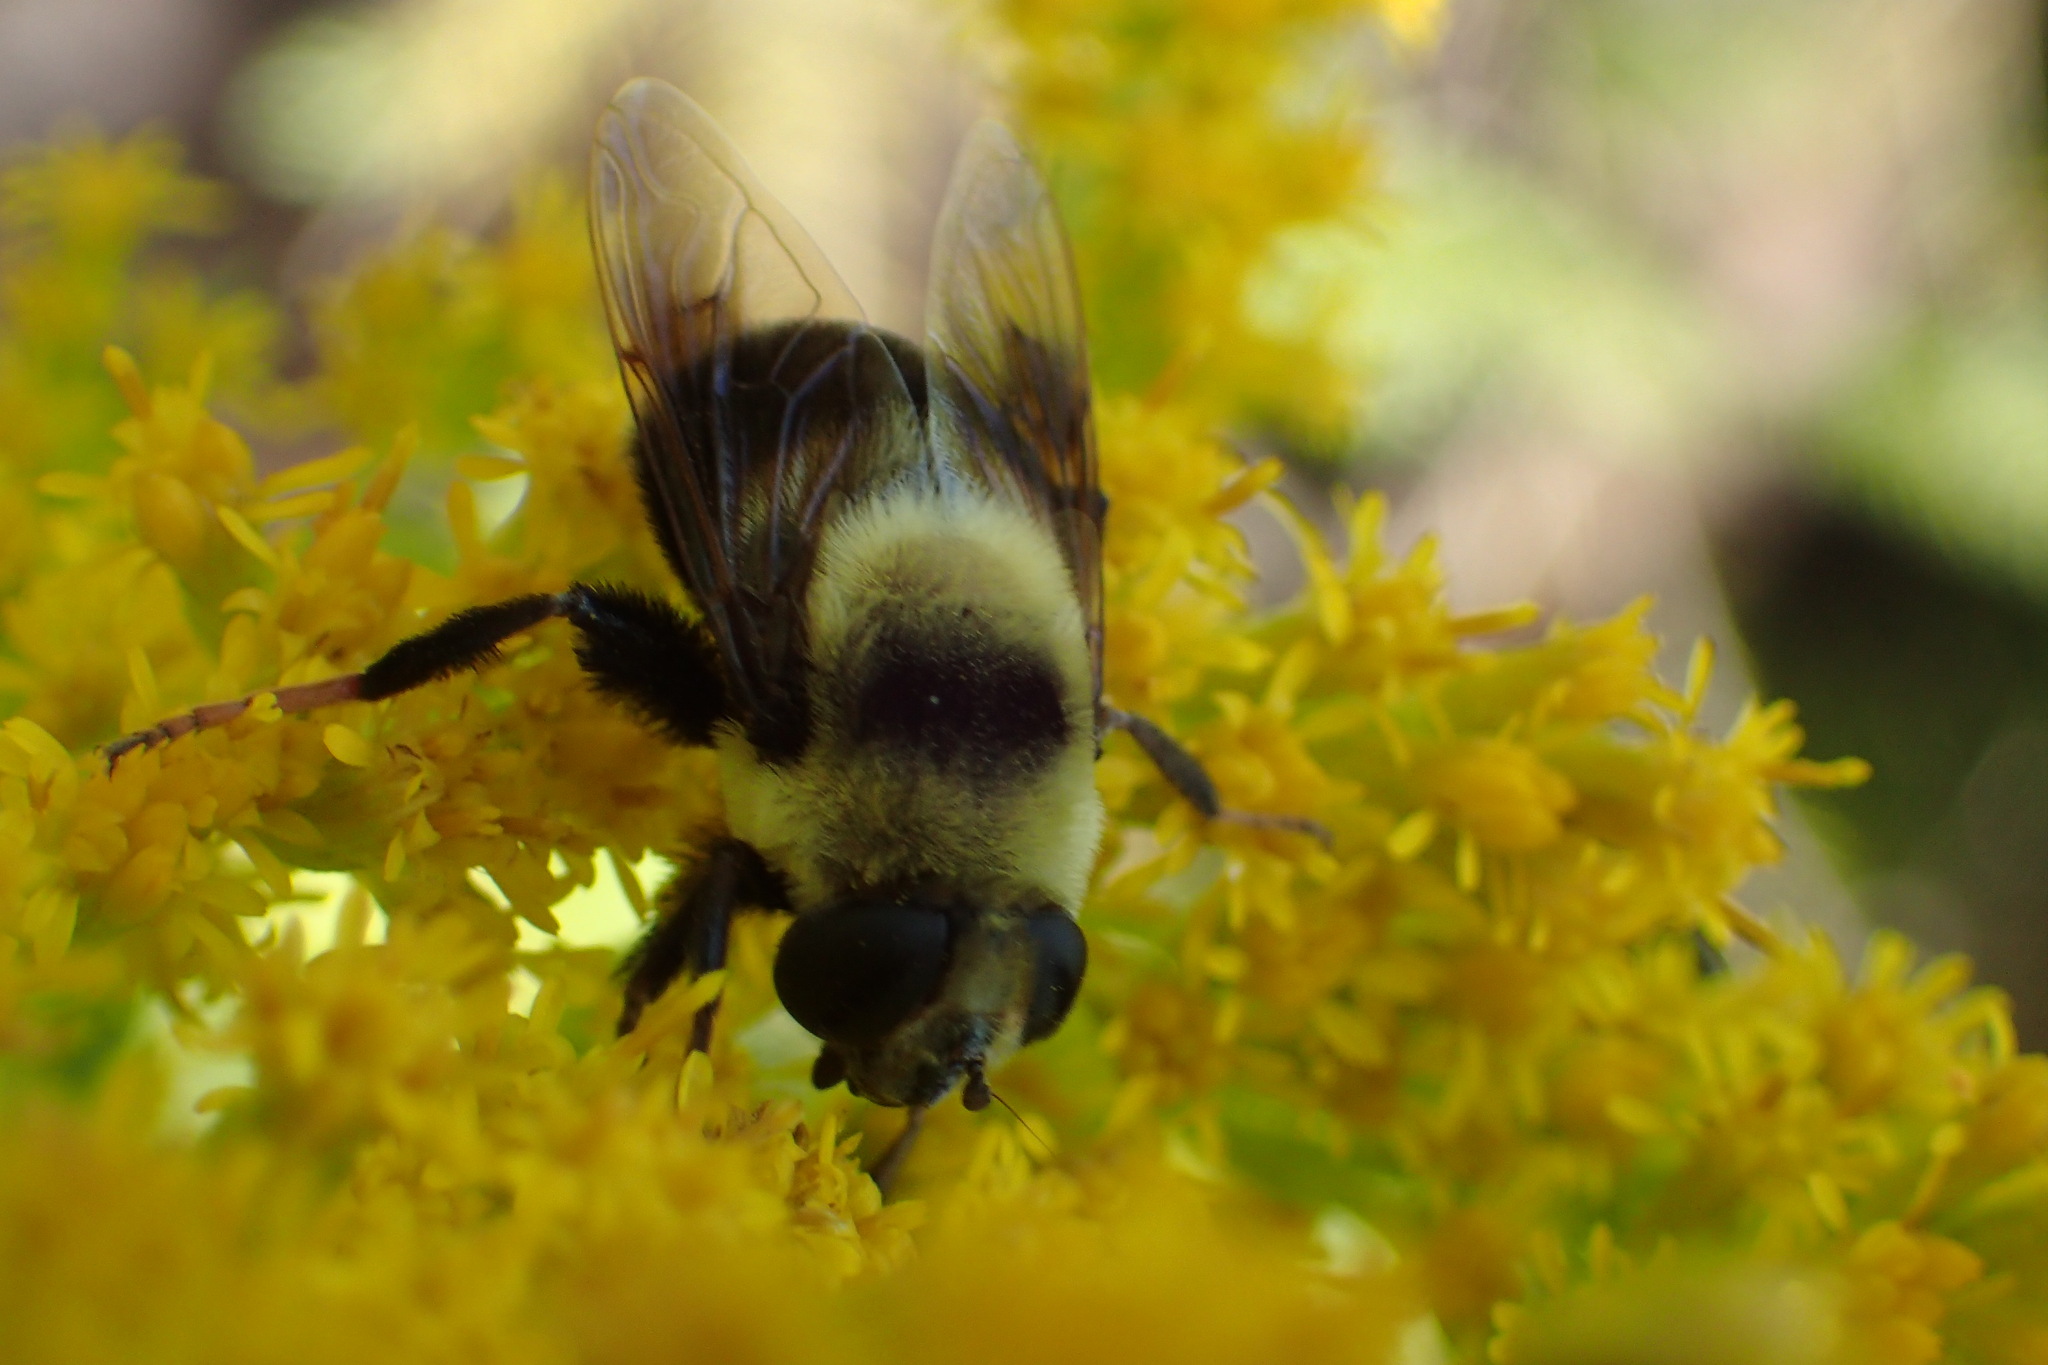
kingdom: Animalia
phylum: Arthropoda
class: Insecta
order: Diptera
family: Syrphidae
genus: Eristalis
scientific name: Eristalis flavipes
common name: Orange-legged drone fly
